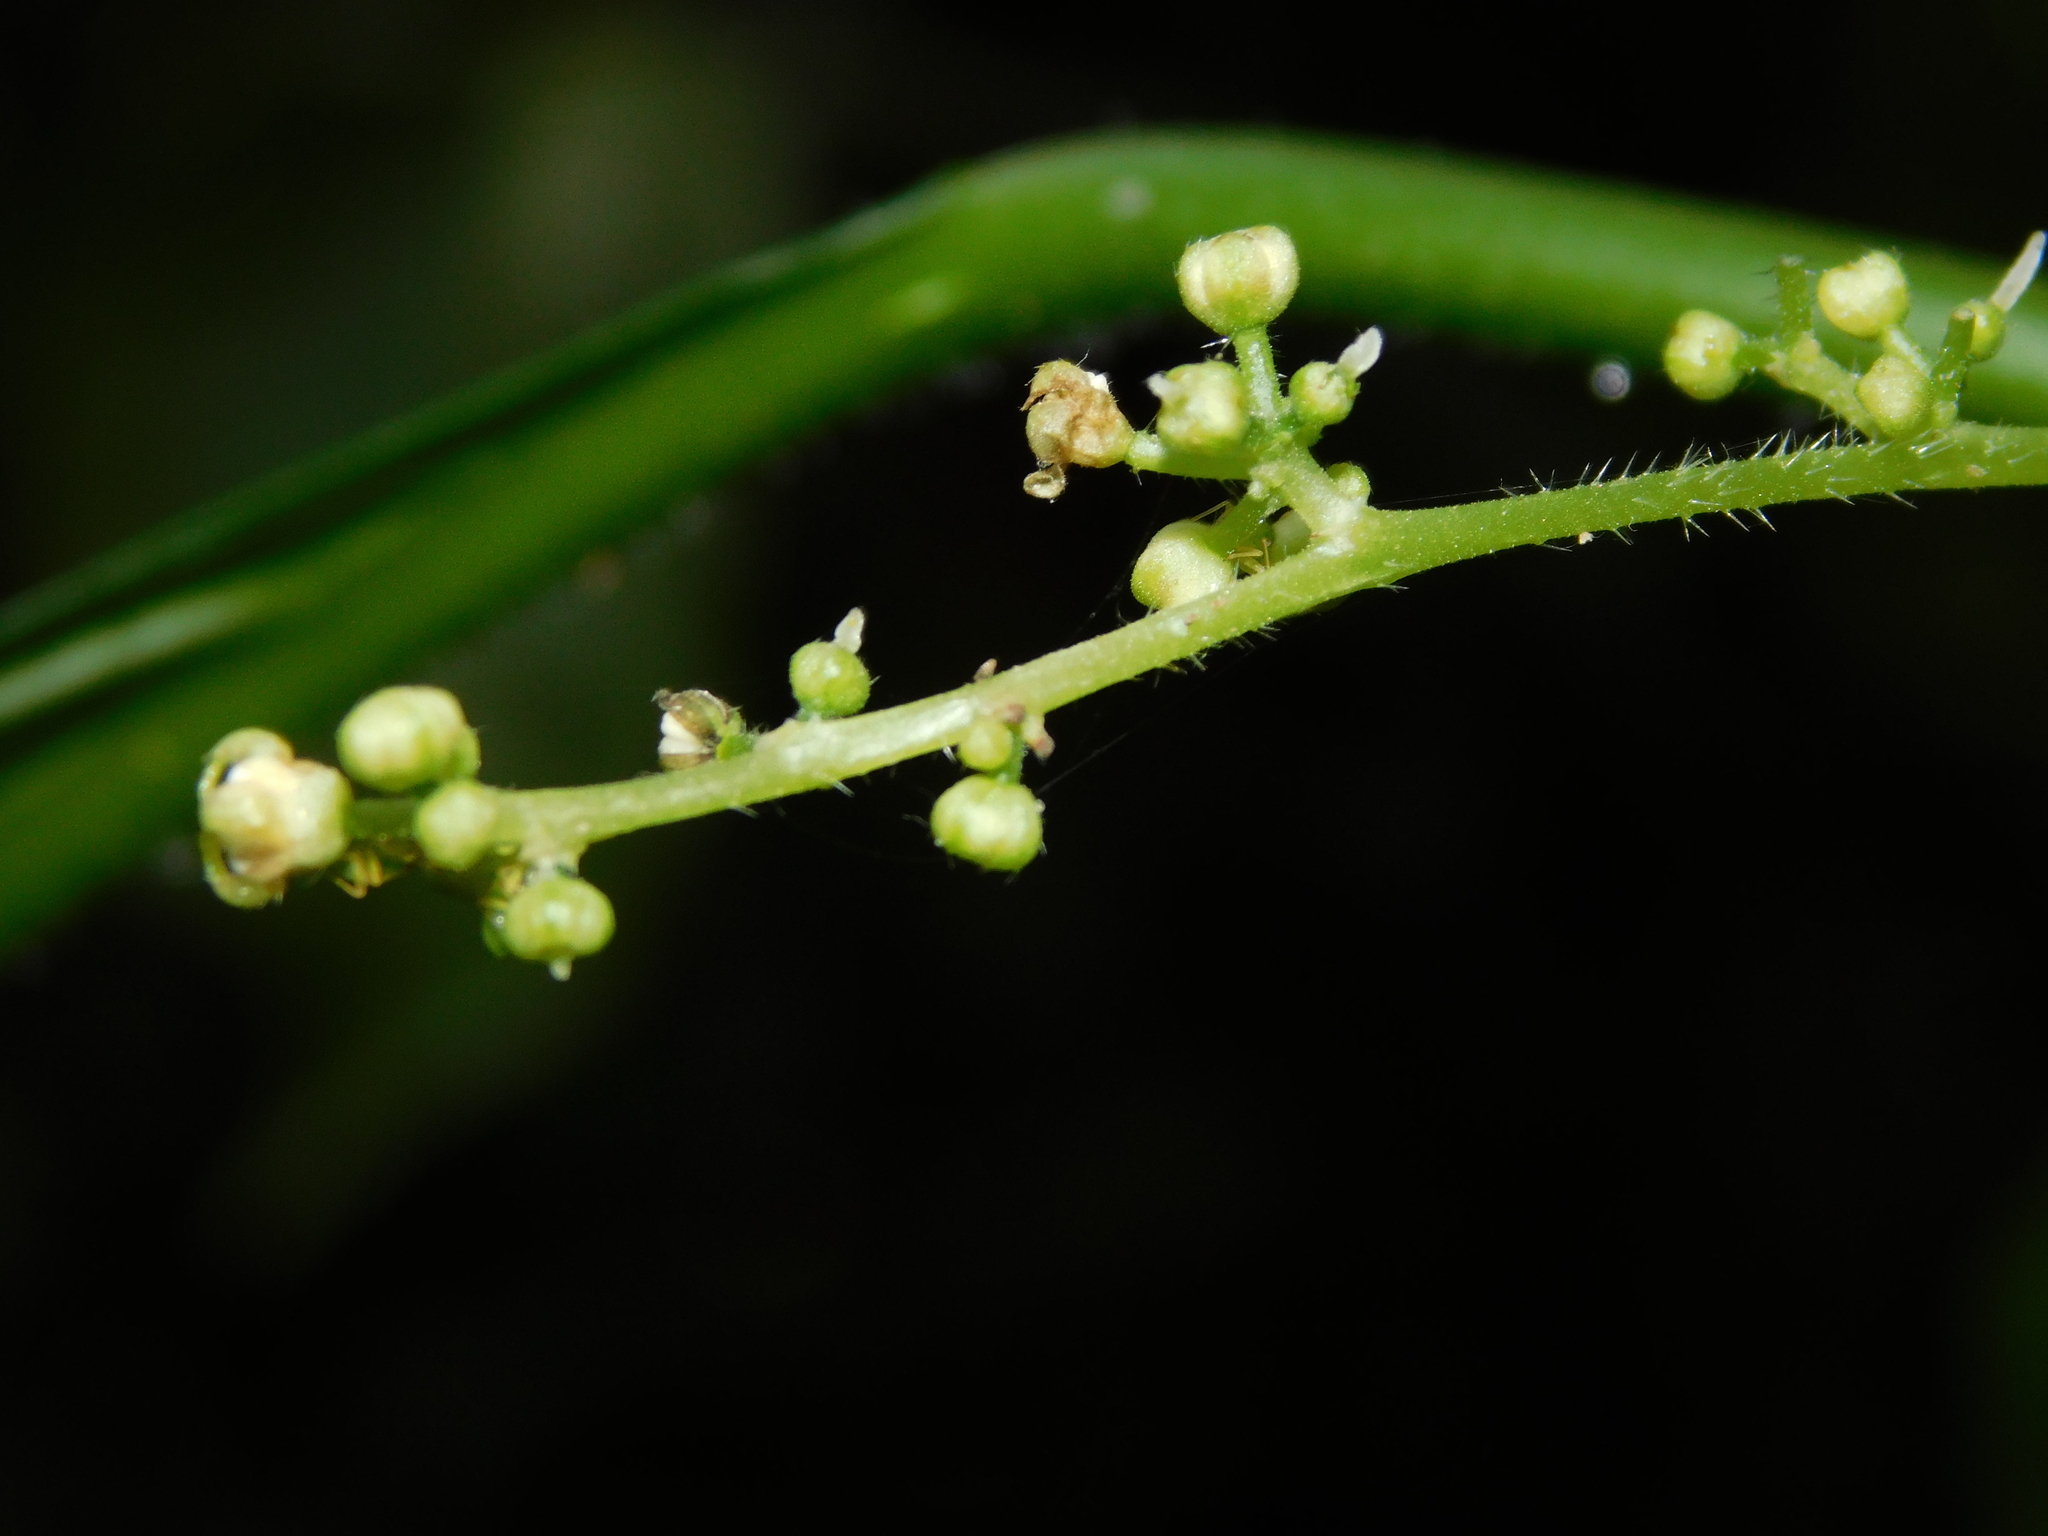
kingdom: Plantae
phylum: Tracheophyta
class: Magnoliopsida
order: Rosales
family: Urticaceae
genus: Dendrocnide
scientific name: Dendrocnide sinuata
